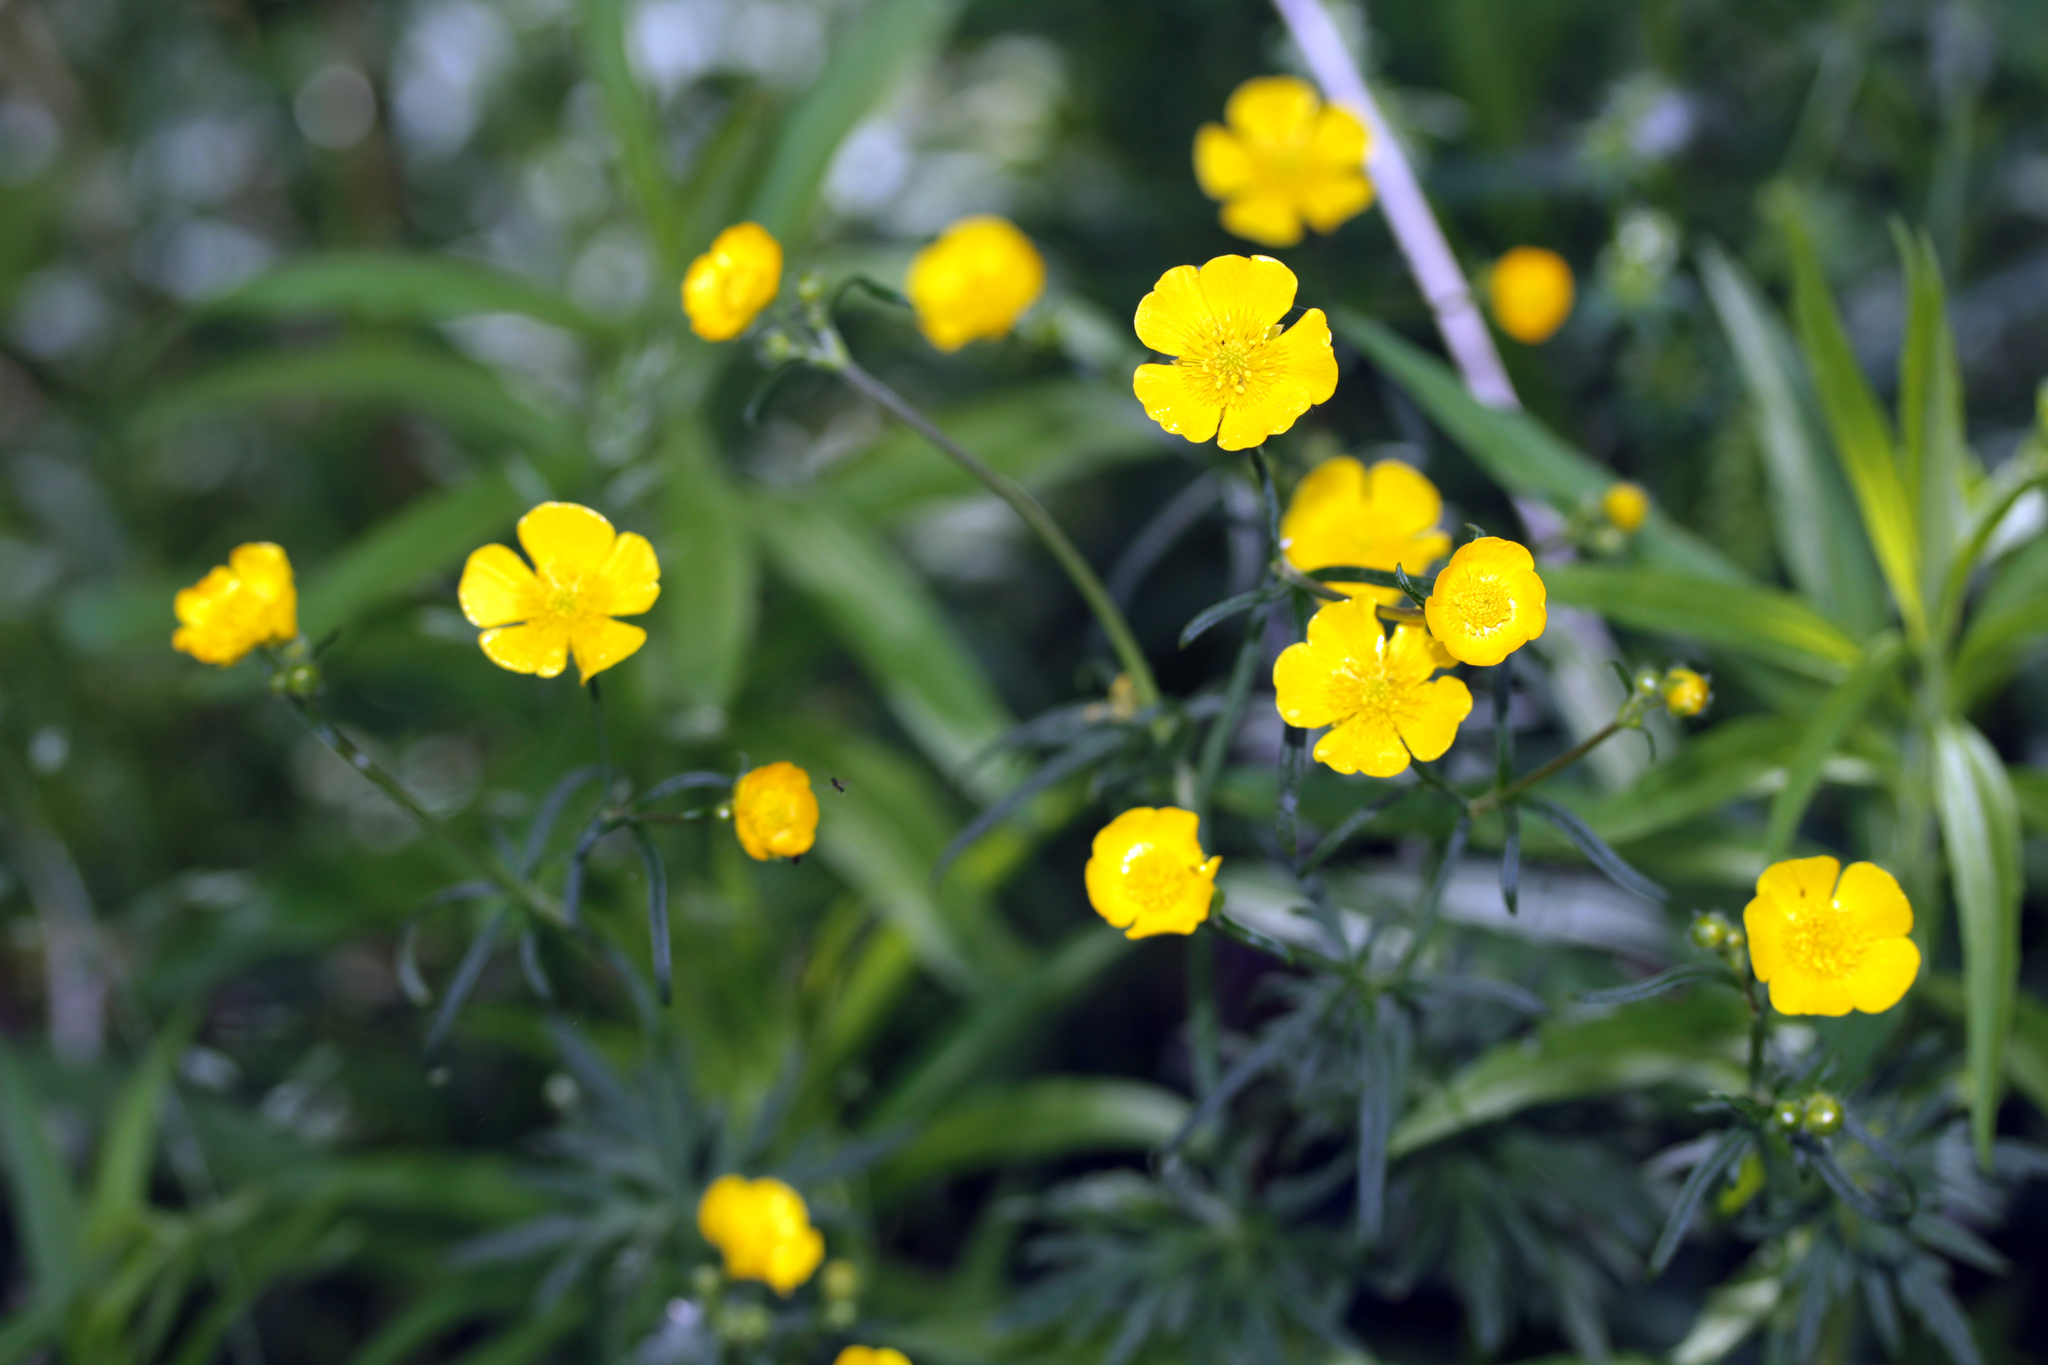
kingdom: Plantae
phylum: Tracheophyta
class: Magnoliopsida
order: Ranunculales
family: Ranunculaceae
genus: Ranunculus
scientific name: Ranunculus acris
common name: Meadow buttercup
